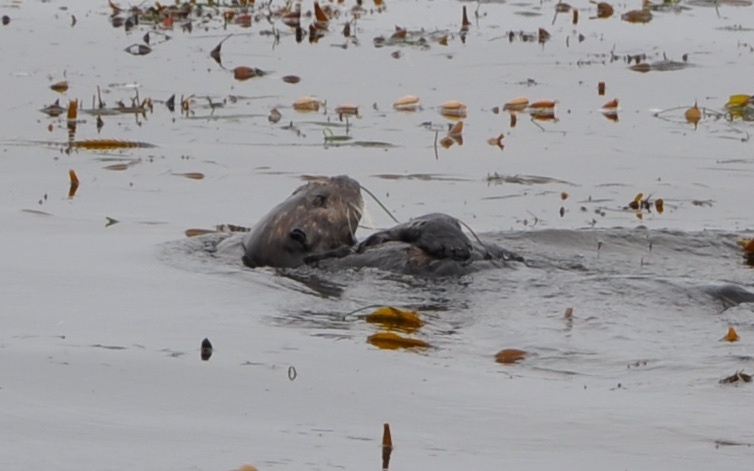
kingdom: Animalia
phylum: Chordata
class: Mammalia
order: Carnivora
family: Mustelidae
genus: Enhydra
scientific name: Enhydra lutris
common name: Sea otter
